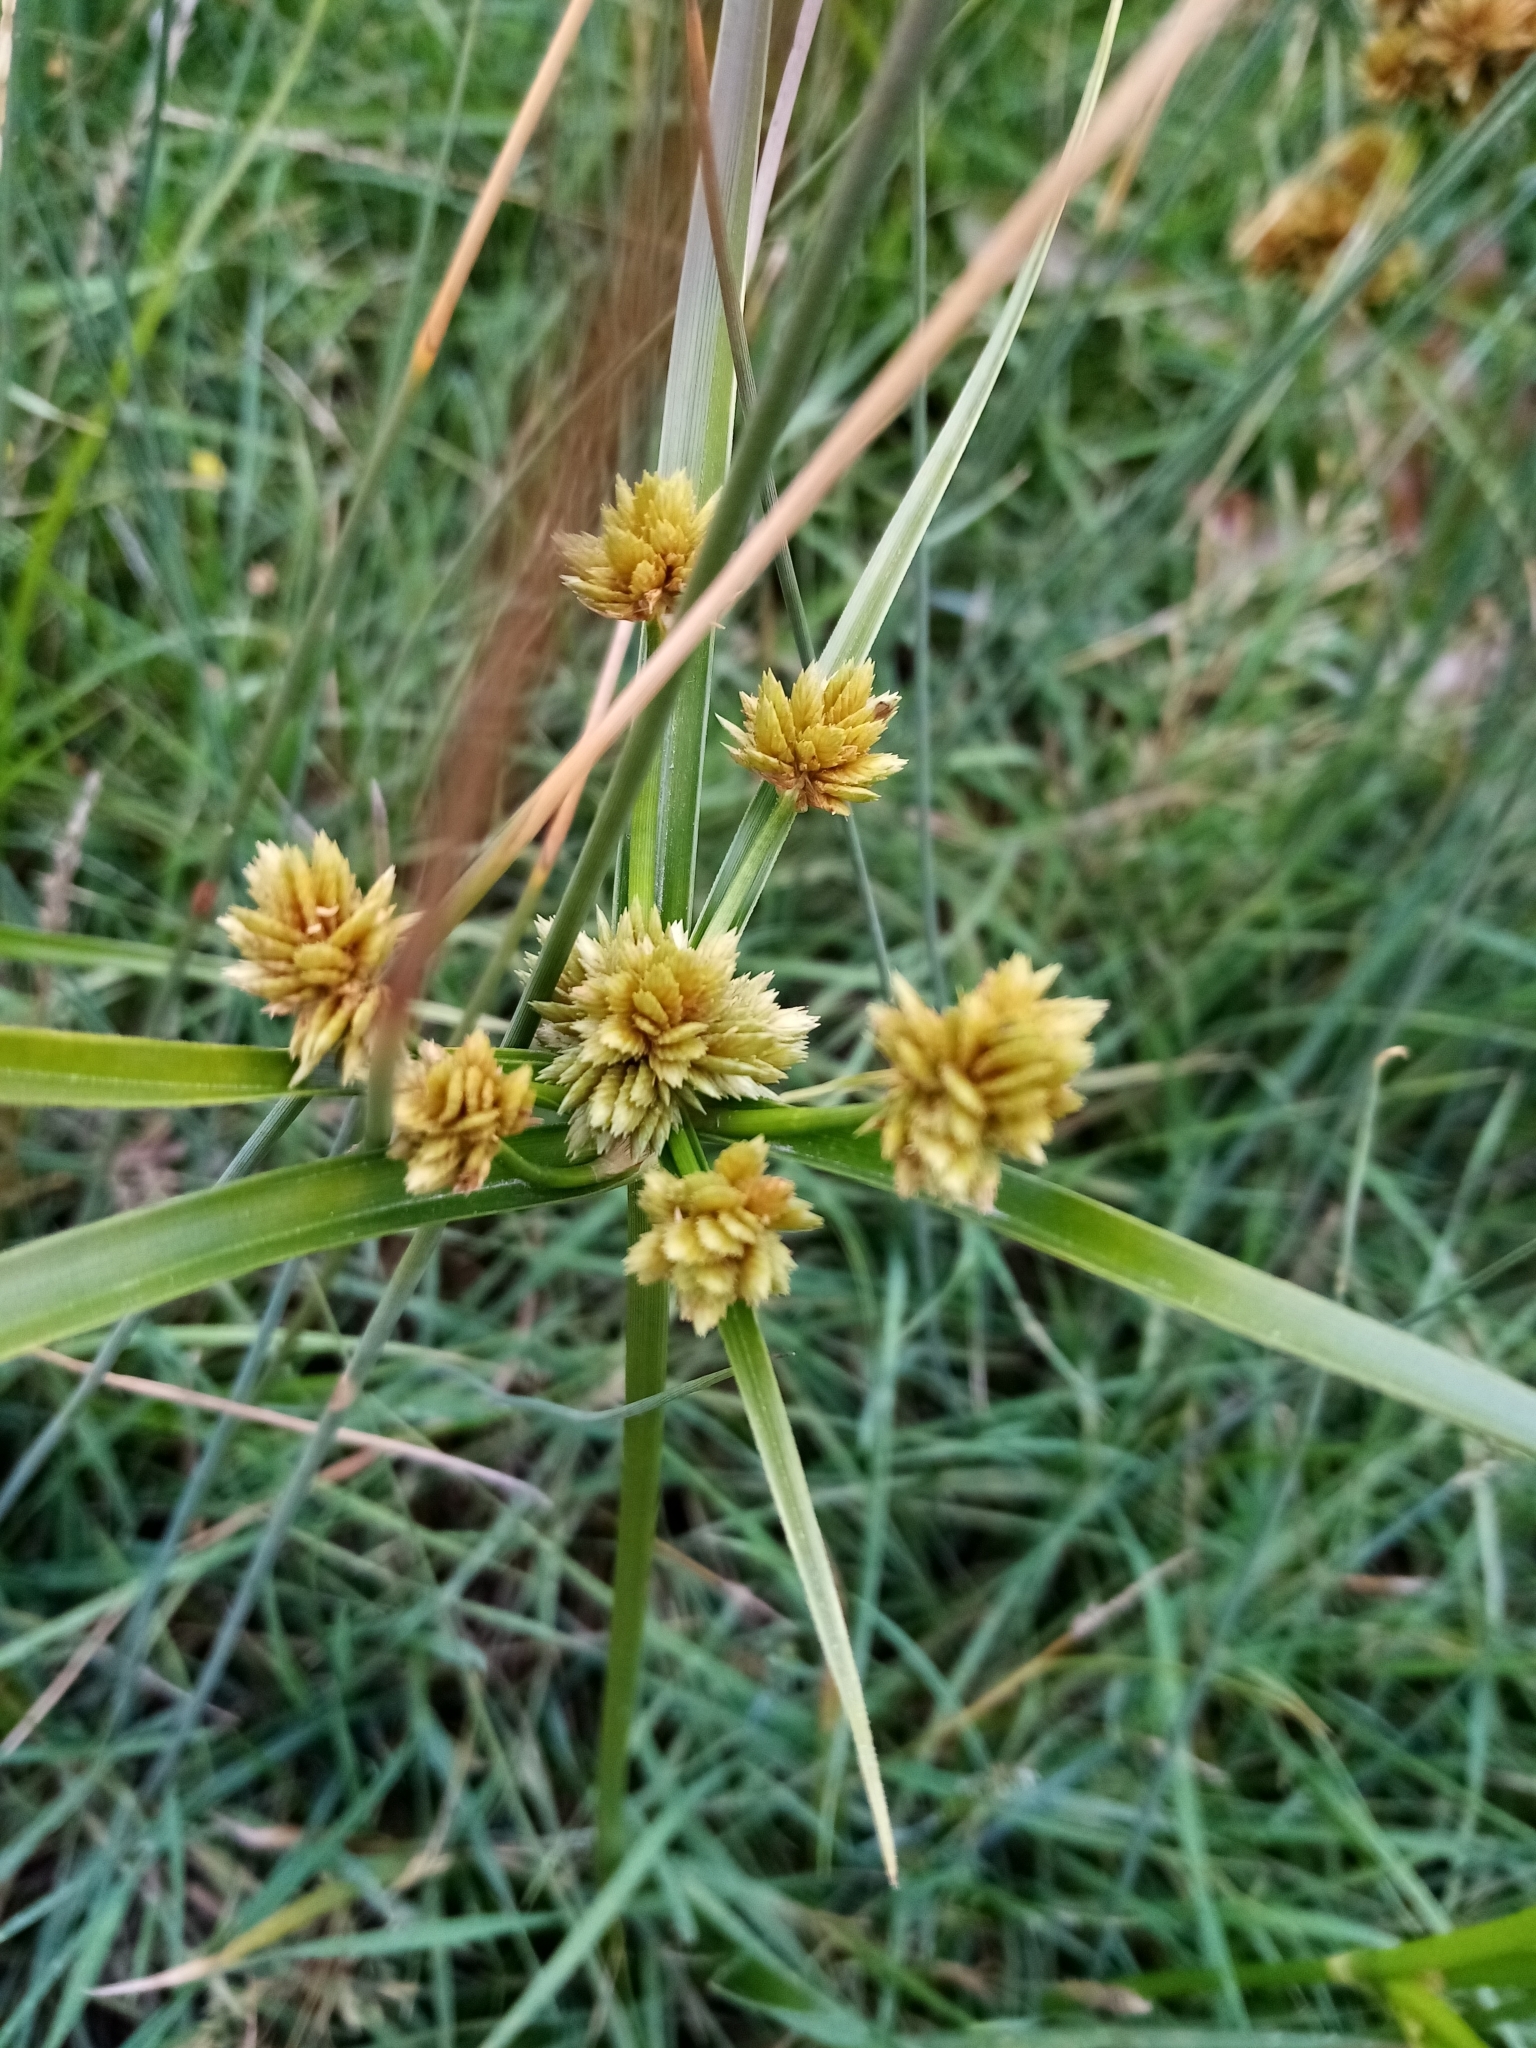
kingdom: Plantae
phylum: Tracheophyta
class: Liliopsida
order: Poales
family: Cyperaceae
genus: Cyperus
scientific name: Cyperus eragrostis
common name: Tall flatsedge
